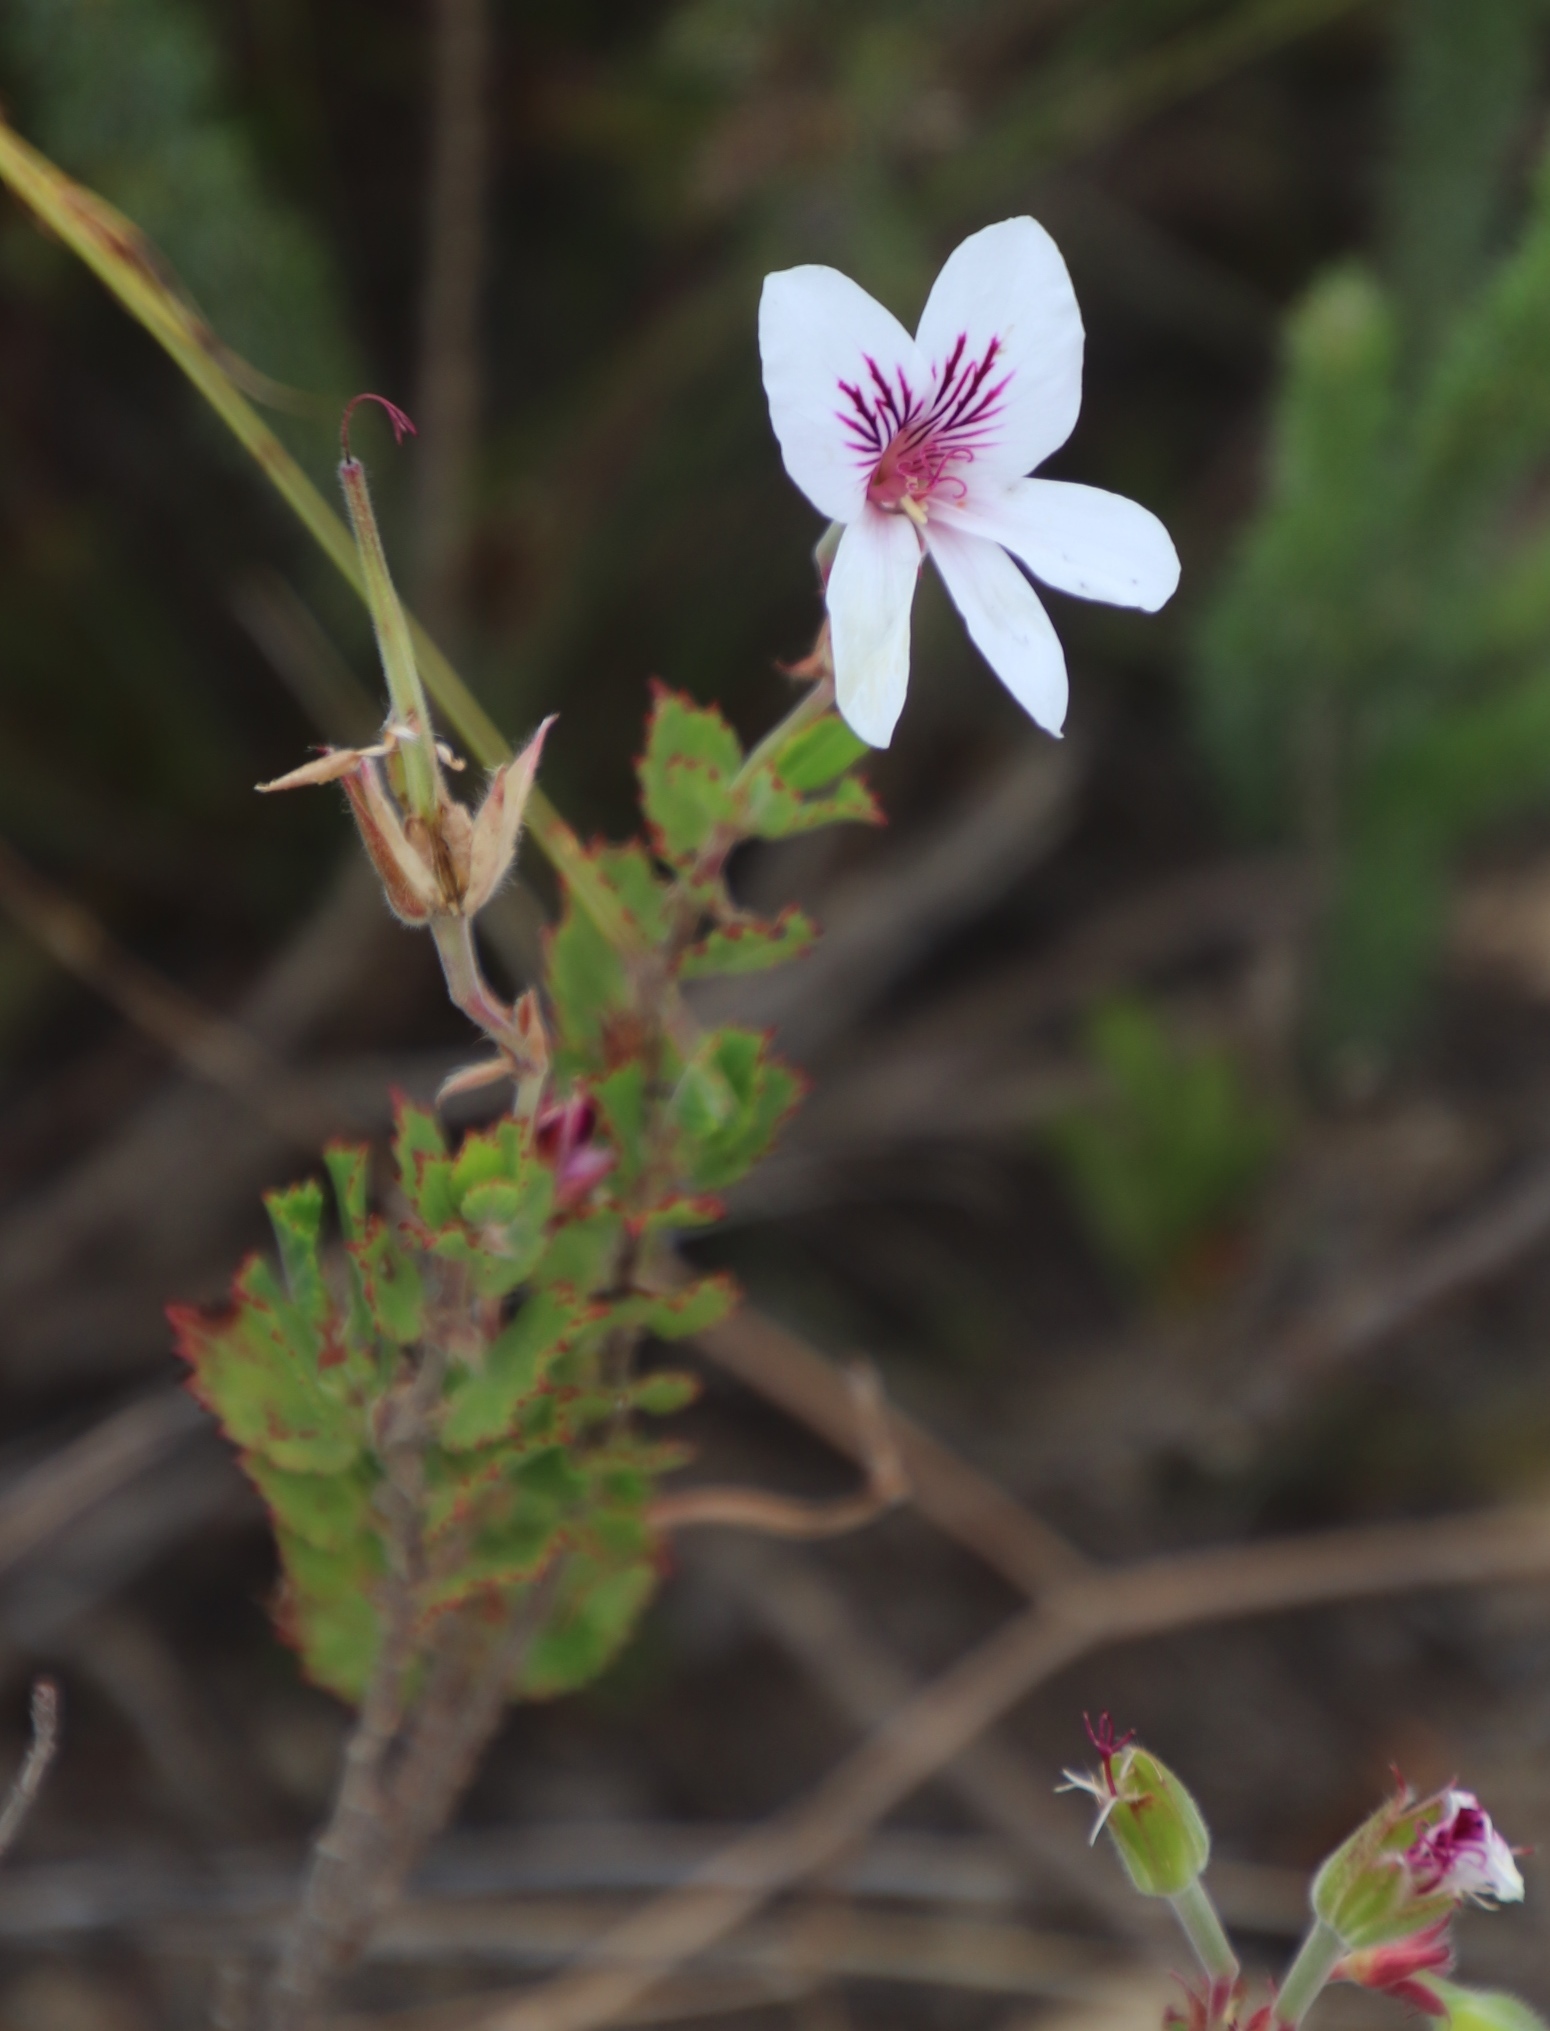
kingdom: Plantae
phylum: Tracheophyta
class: Magnoliopsida
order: Geraniales
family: Geraniaceae
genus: Pelargonium
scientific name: Pelargonium betulinum
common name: Birch-leaf pelargonium
